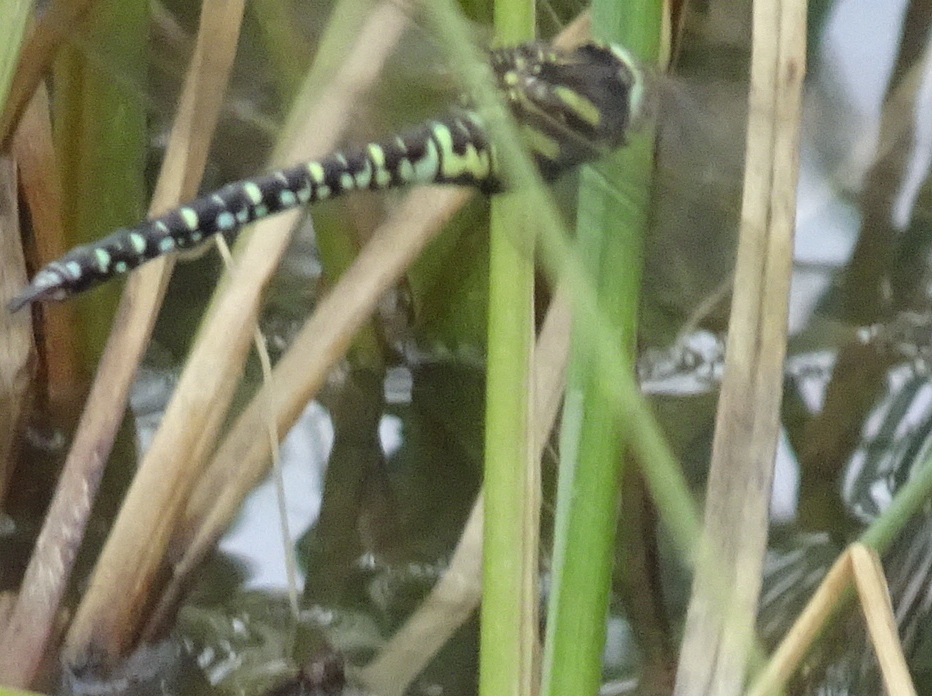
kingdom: Animalia
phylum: Arthropoda
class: Insecta
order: Odonata
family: Aeshnidae
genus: Aeshna
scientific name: Aeshna juncea
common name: Moorland hawker
